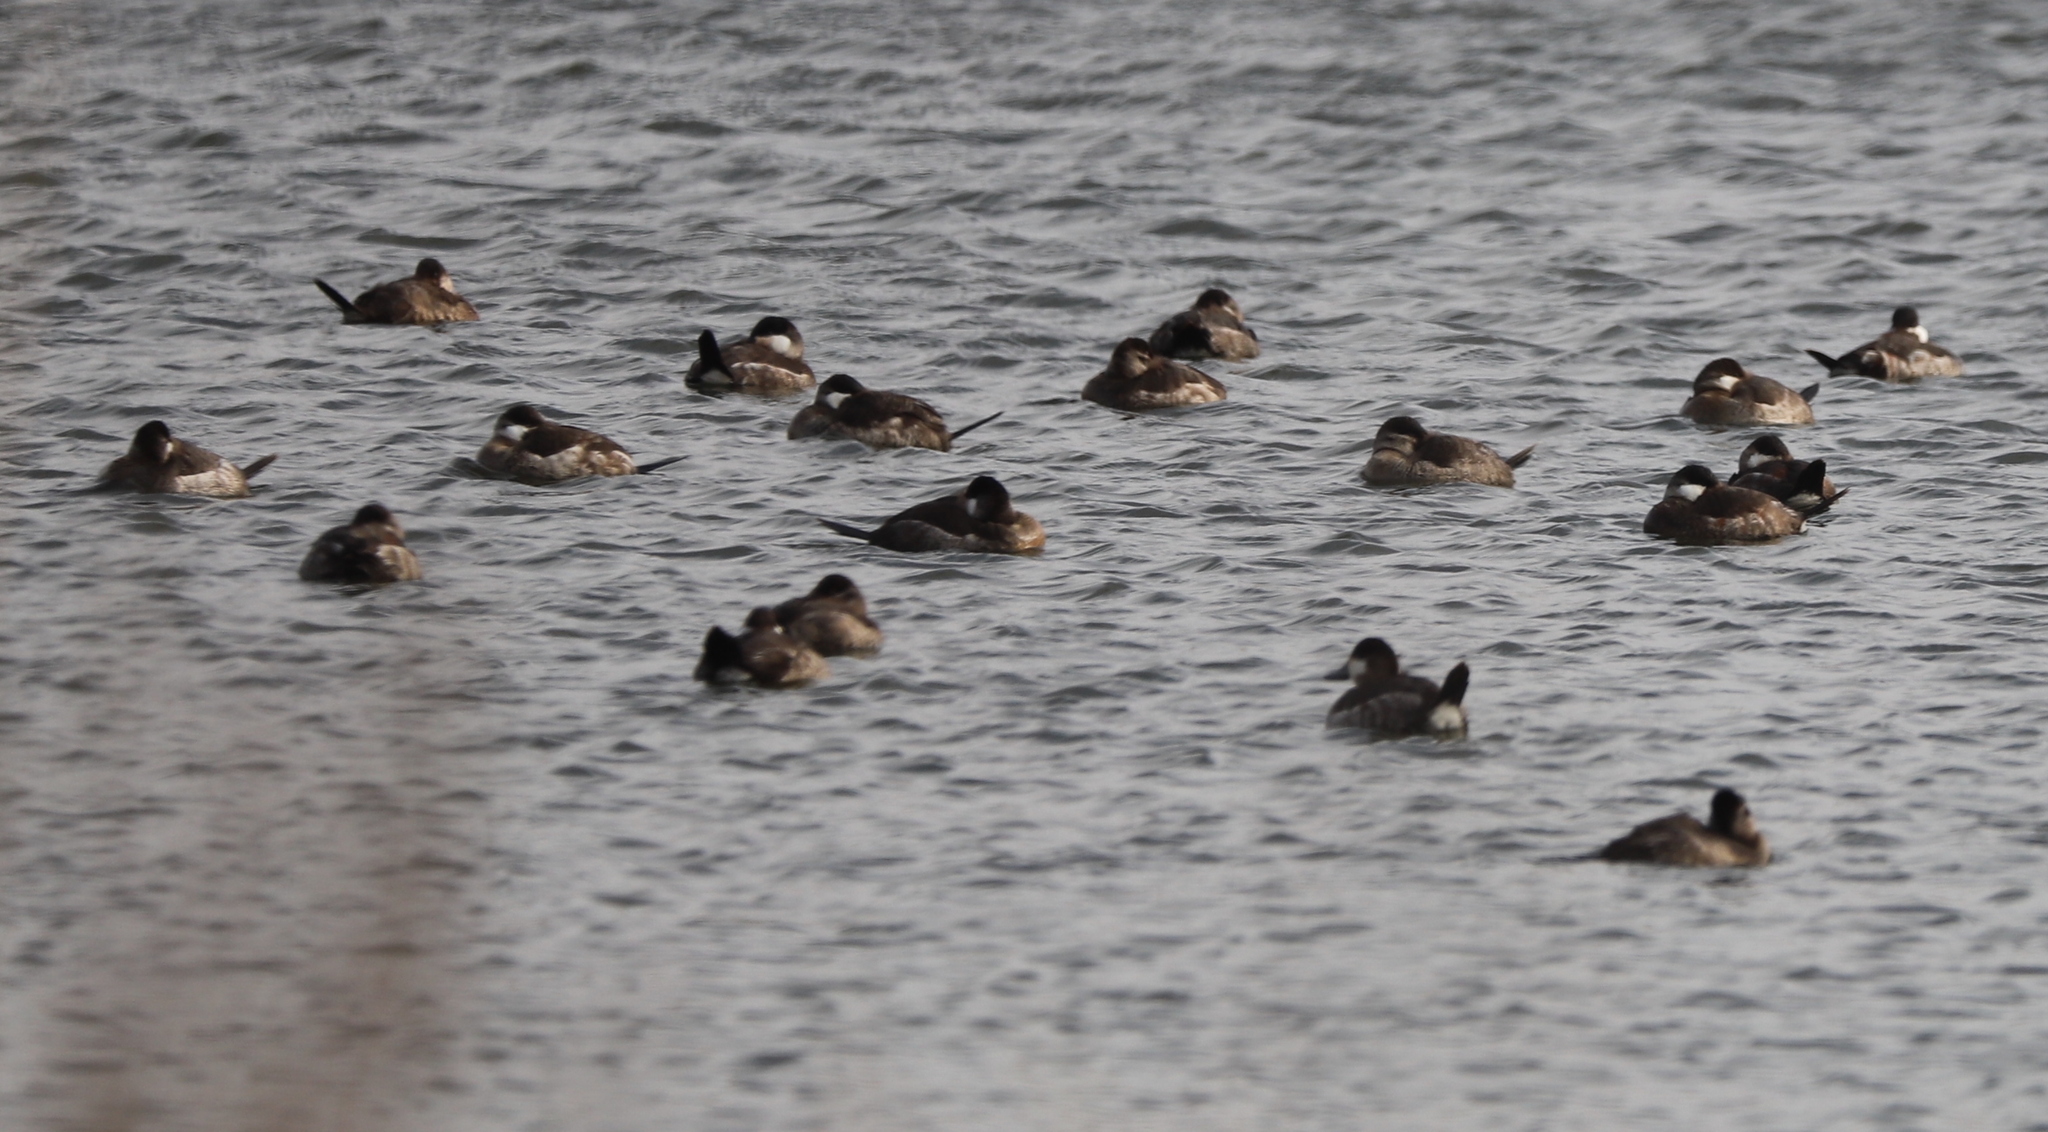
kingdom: Animalia
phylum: Chordata
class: Aves
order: Anseriformes
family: Anatidae
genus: Oxyura
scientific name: Oxyura jamaicensis
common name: Ruddy duck
